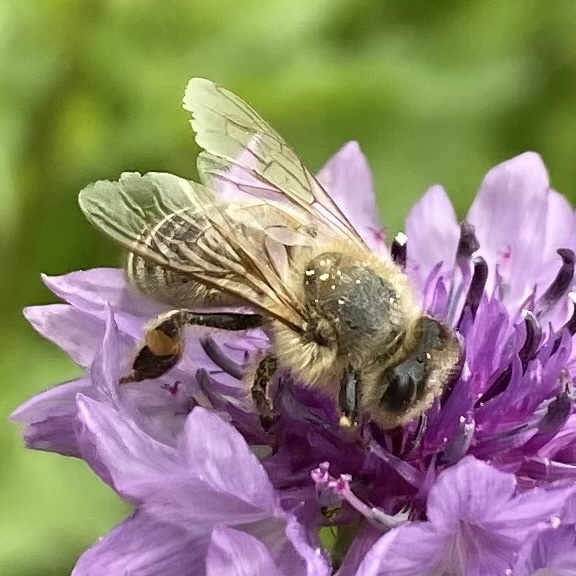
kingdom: Animalia
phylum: Arthropoda
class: Insecta
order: Hymenoptera
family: Apidae
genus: Apis
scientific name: Apis mellifera
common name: Honey bee
